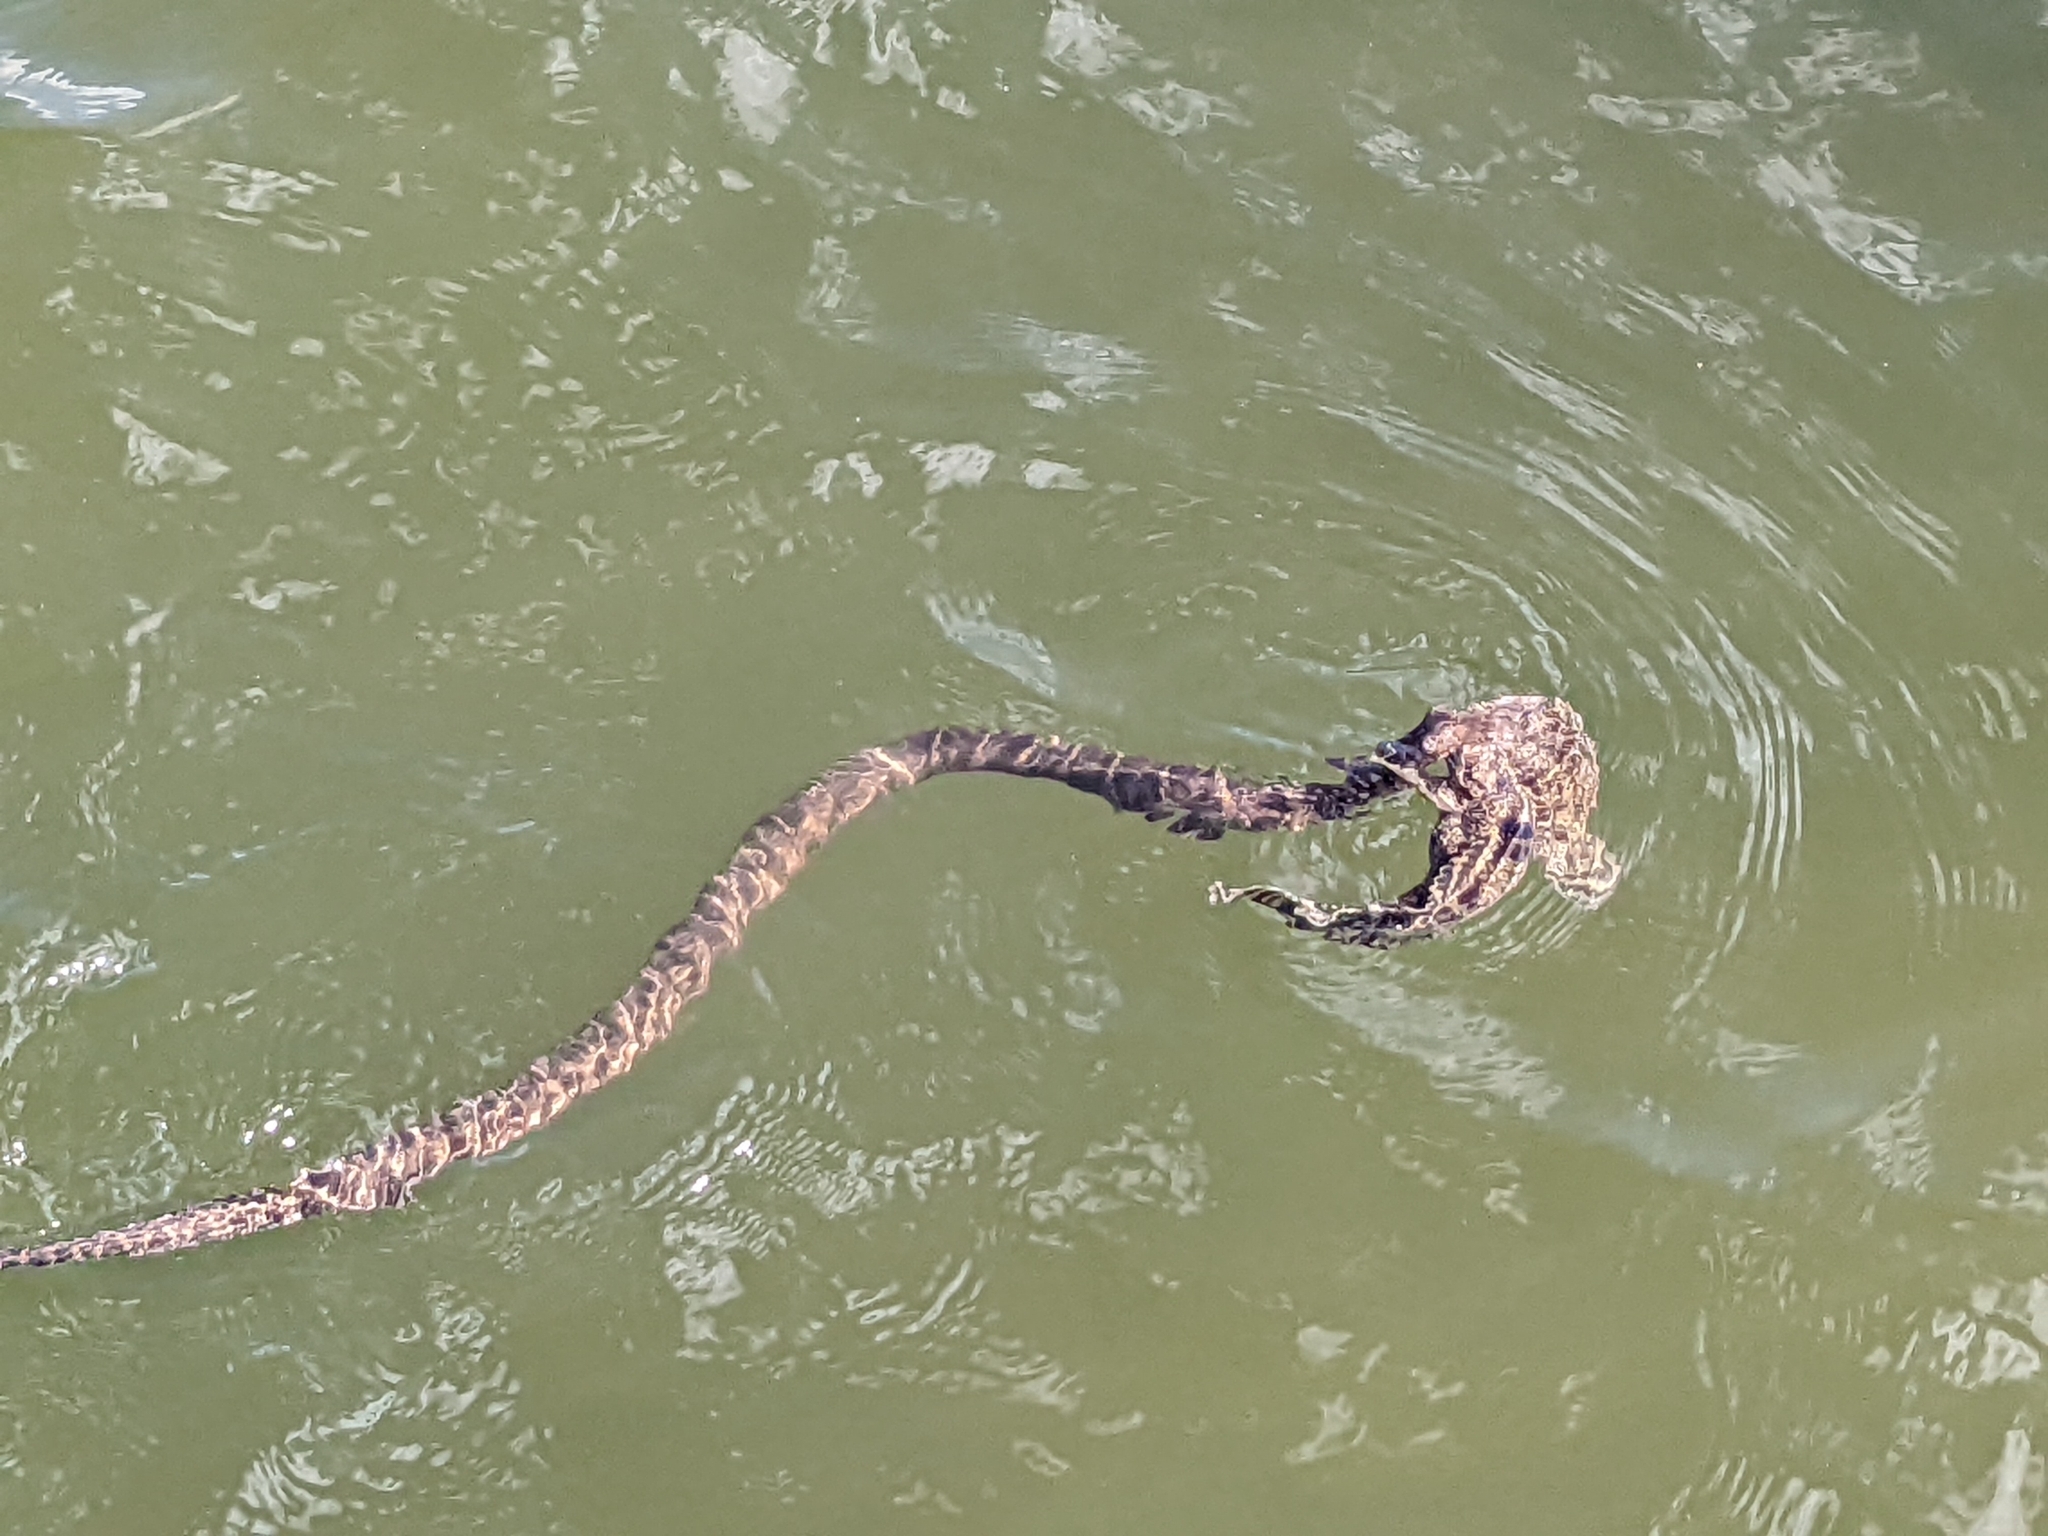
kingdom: Animalia
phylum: Chordata
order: Batrachoidiformes
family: Batrachoididae
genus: Opsanus
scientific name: Opsanus tau
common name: Oyster toadfish
